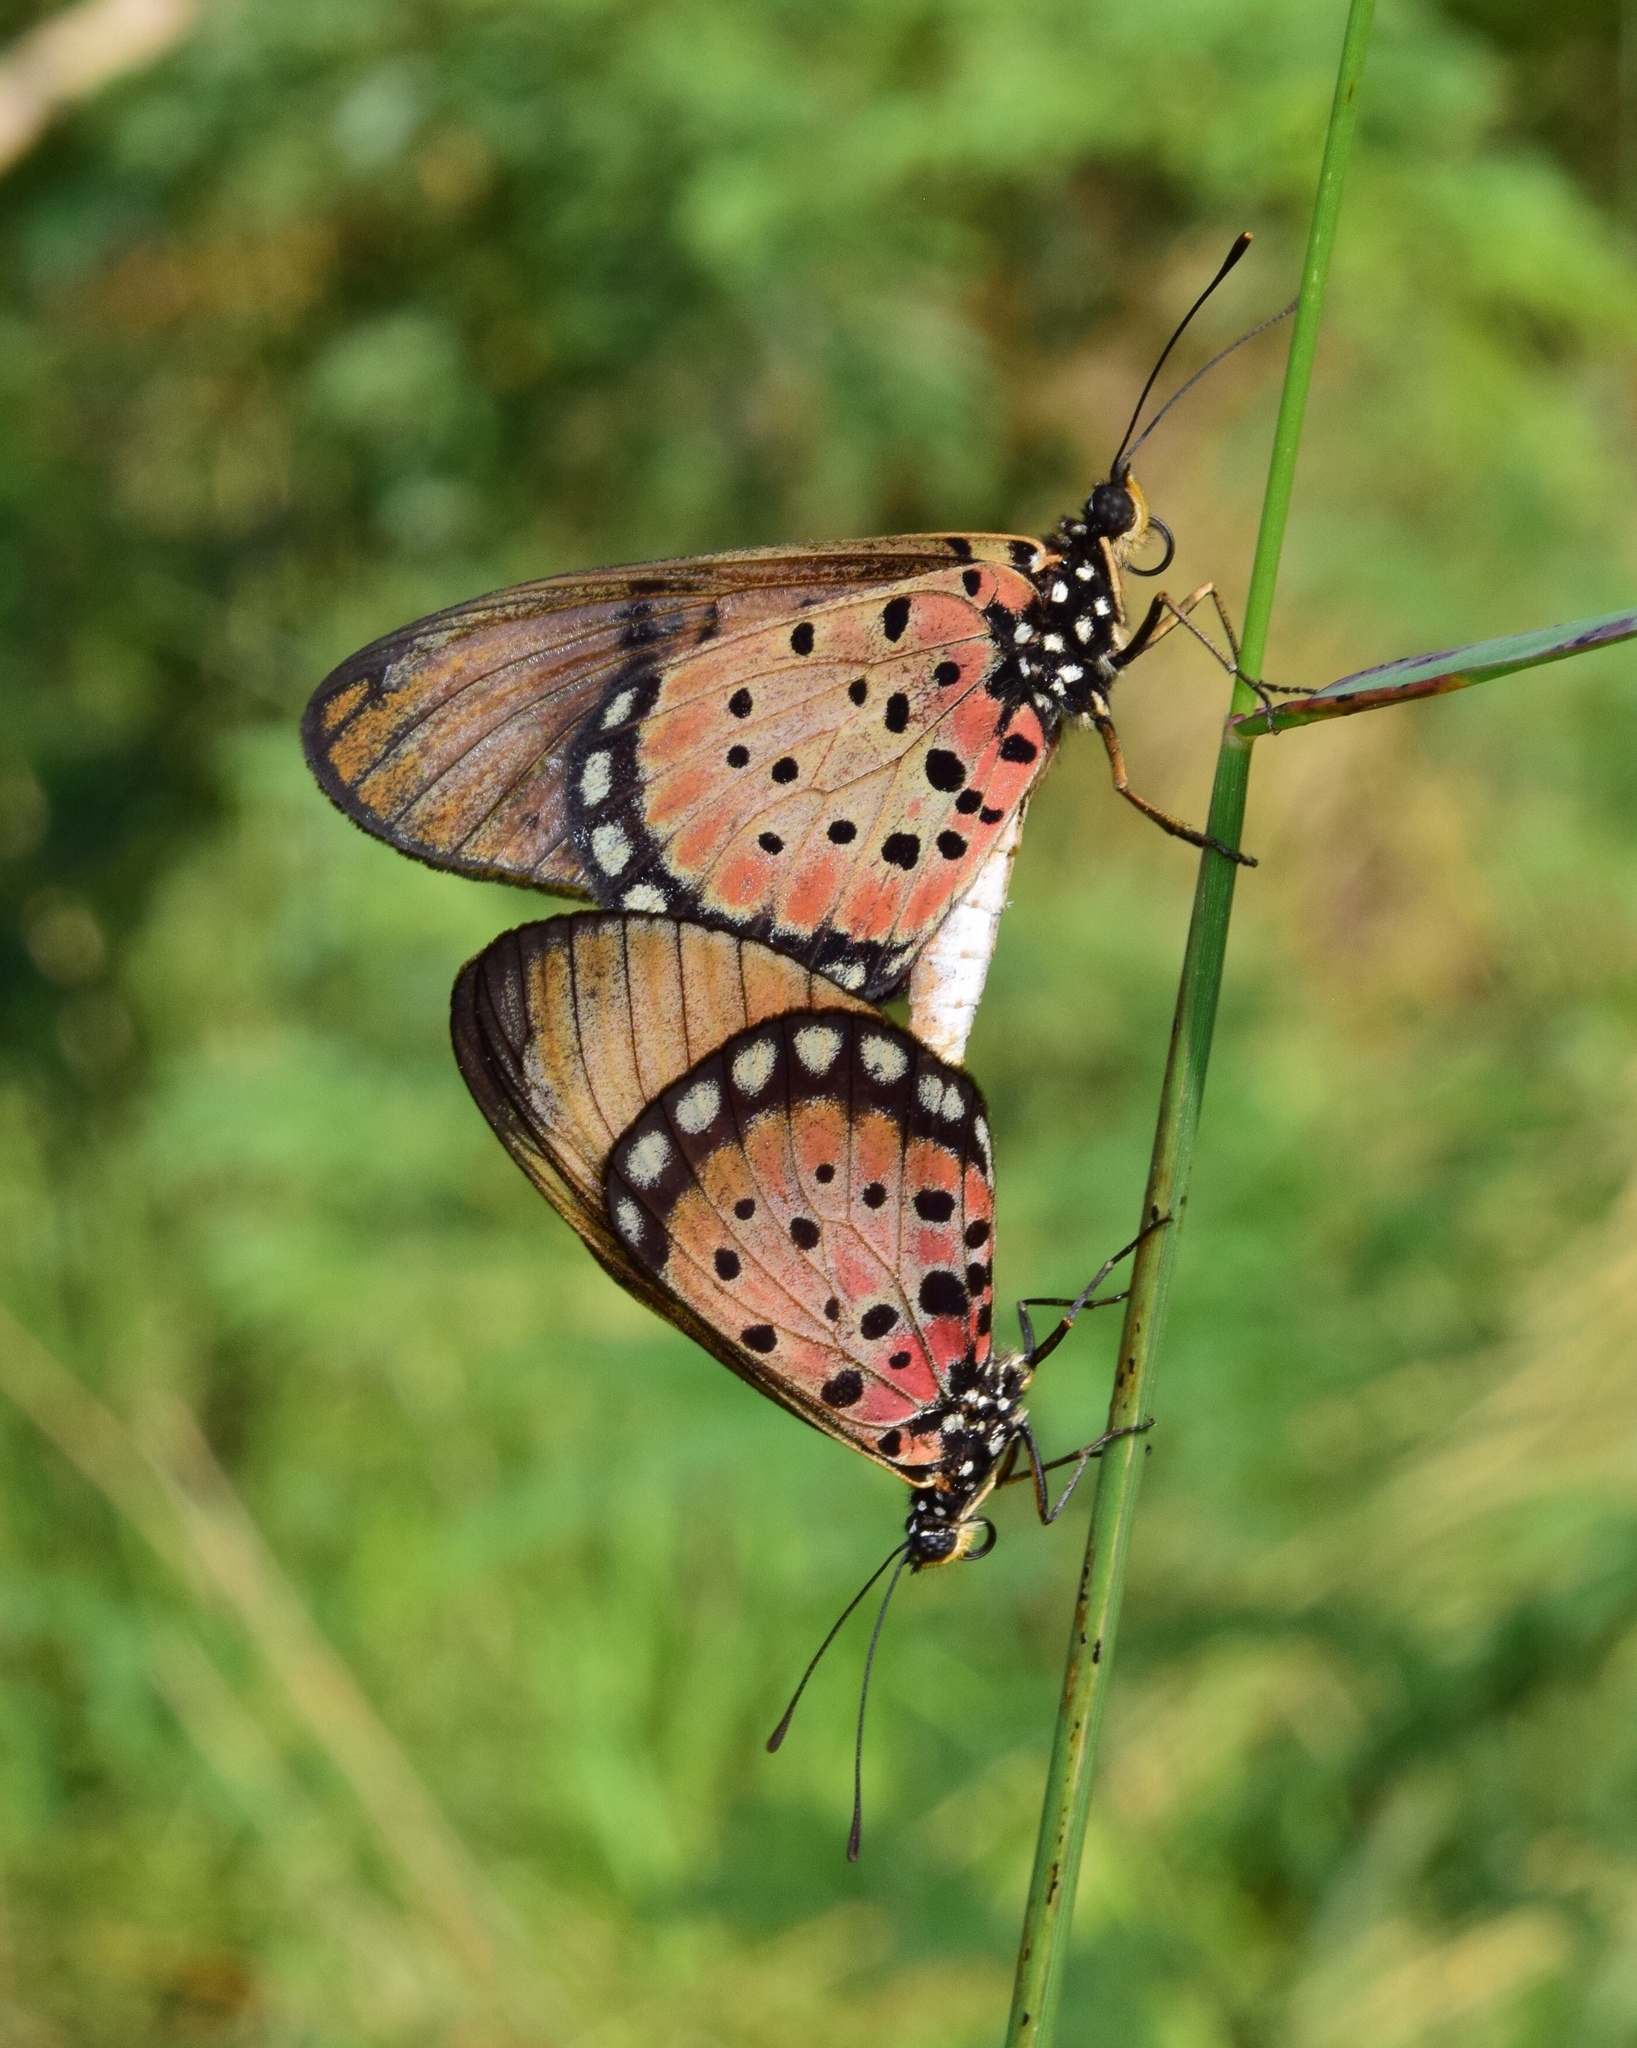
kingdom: Animalia
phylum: Arthropoda
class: Insecta
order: Lepidoptera
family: Nymphalidae
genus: Stephenia
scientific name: Stephenia
